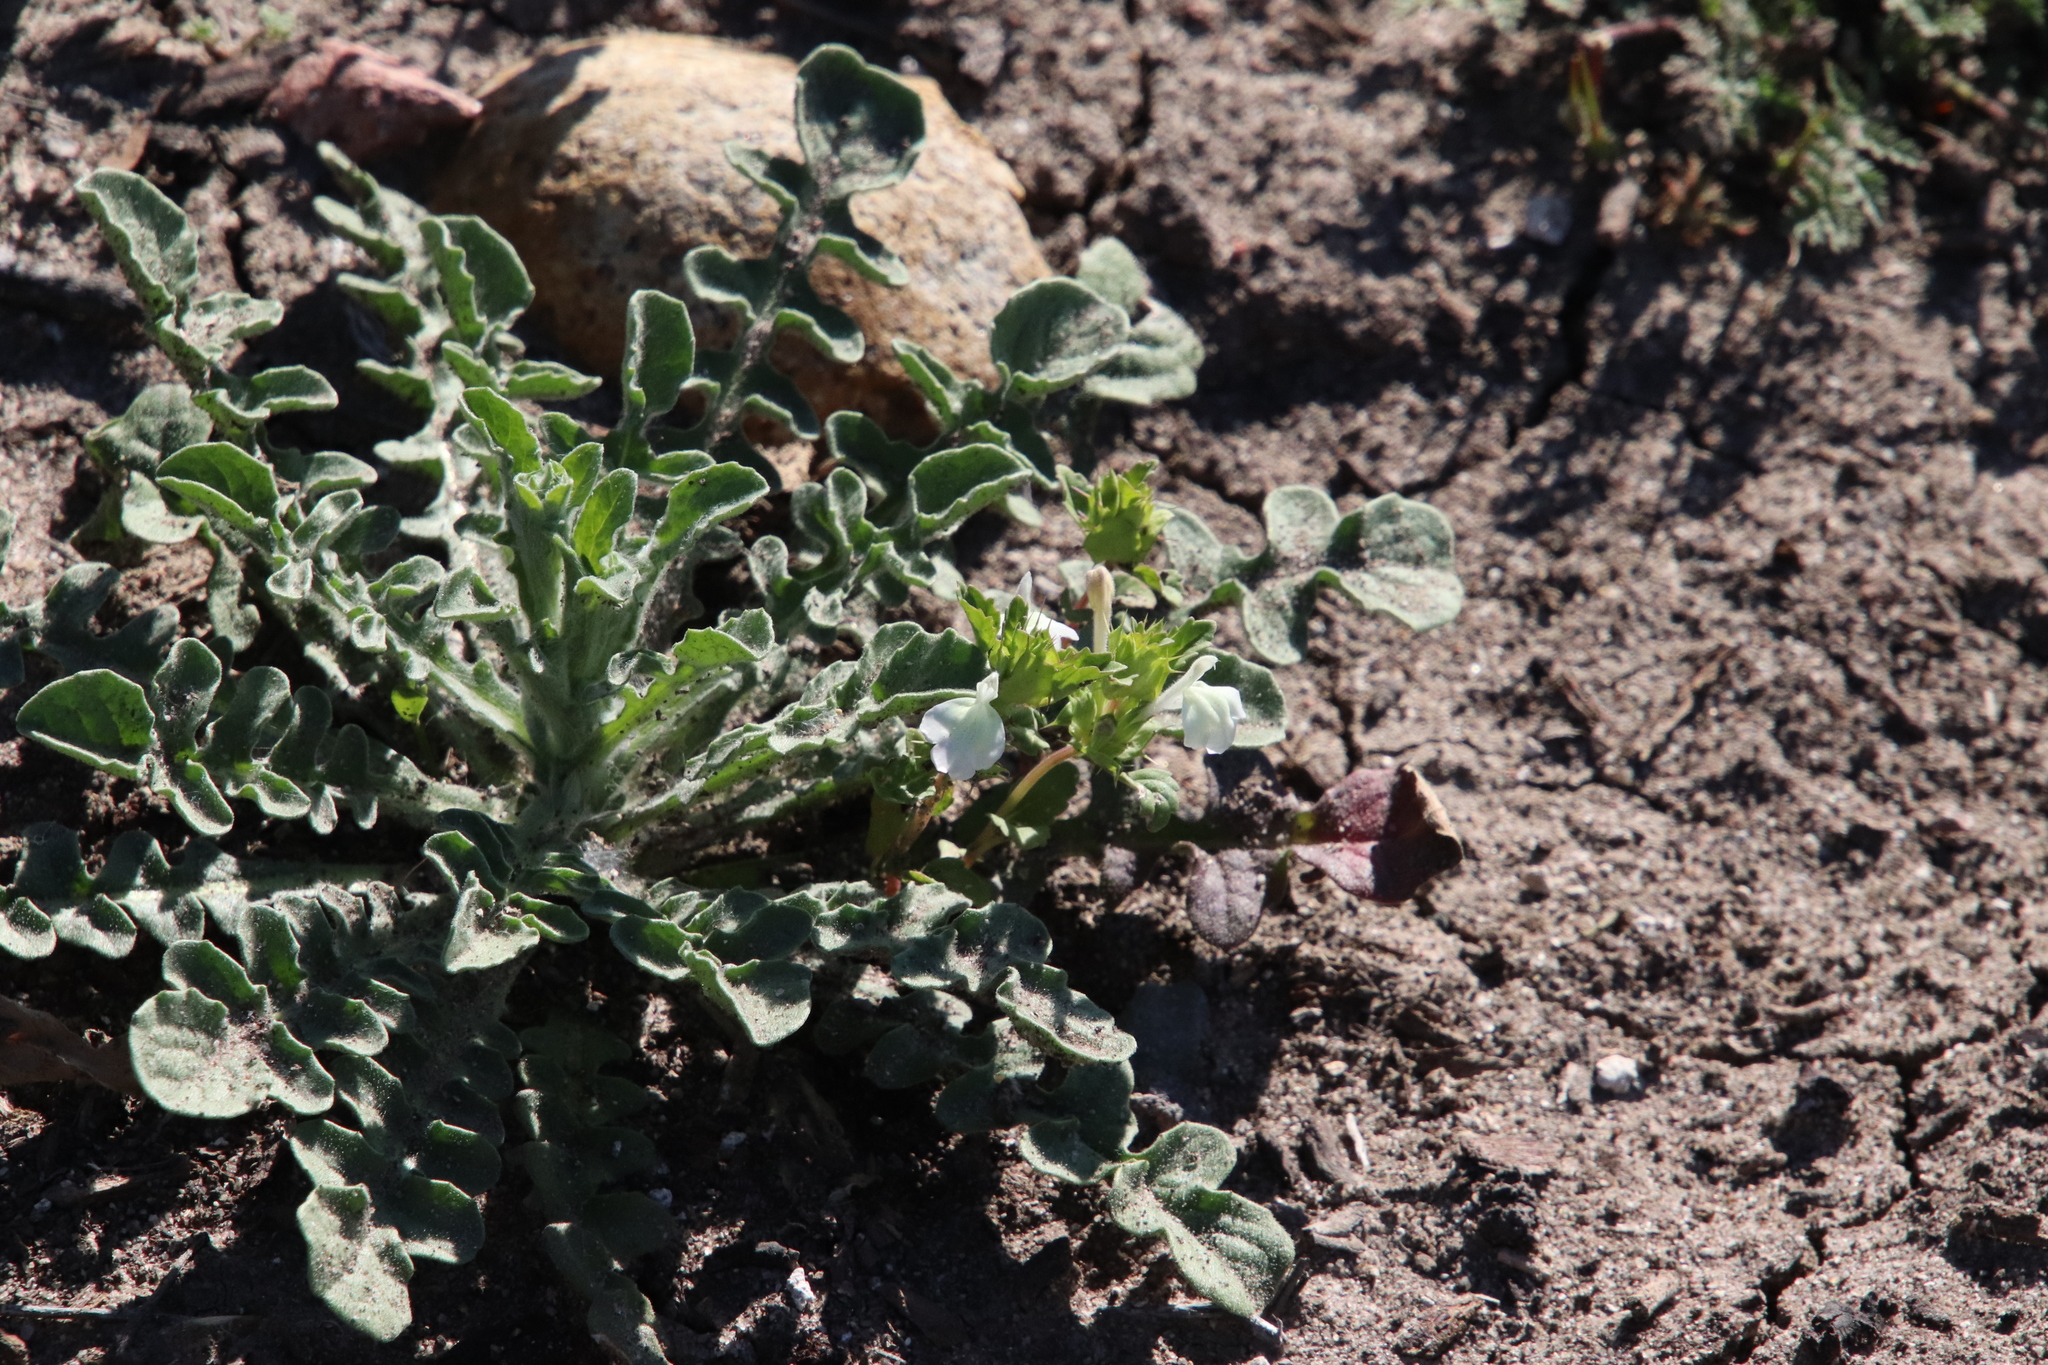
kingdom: Plantae
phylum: Tracheophyta
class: Magnoliopsida
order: Lamiales
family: Lamiaceae
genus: Acanthomintha
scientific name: Acanthomintha ilicifolia
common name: San diego thorn-mint
